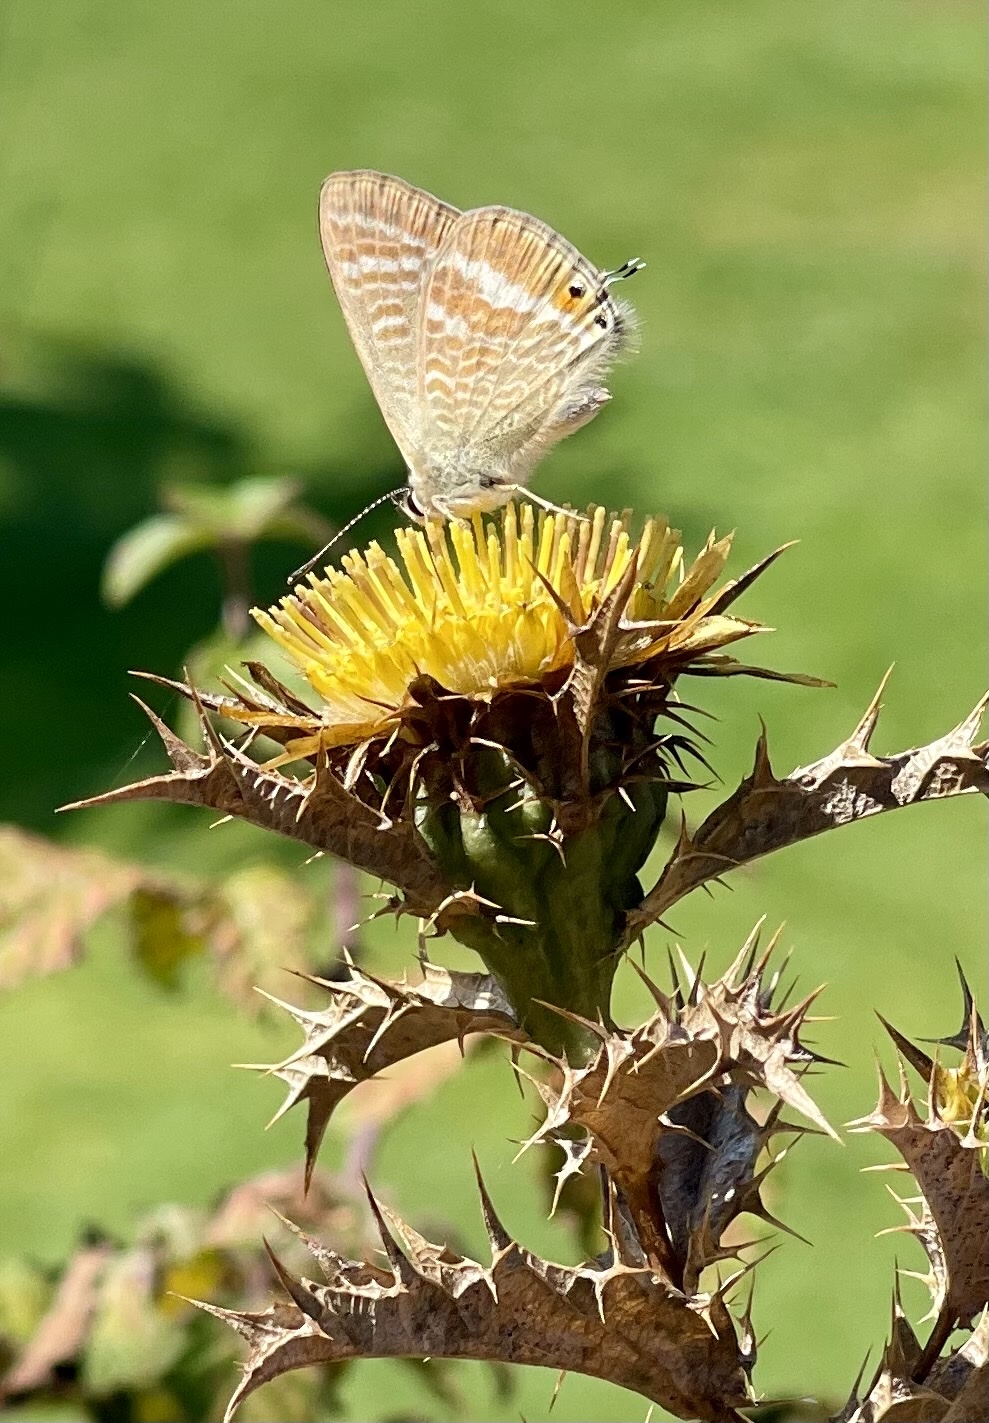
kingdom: Animalia
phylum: Arthropoda
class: Insecta
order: Lepidoptera
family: Lycaenidae
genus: Lampides
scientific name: Lampides boeticus
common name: Long-tailed blue
